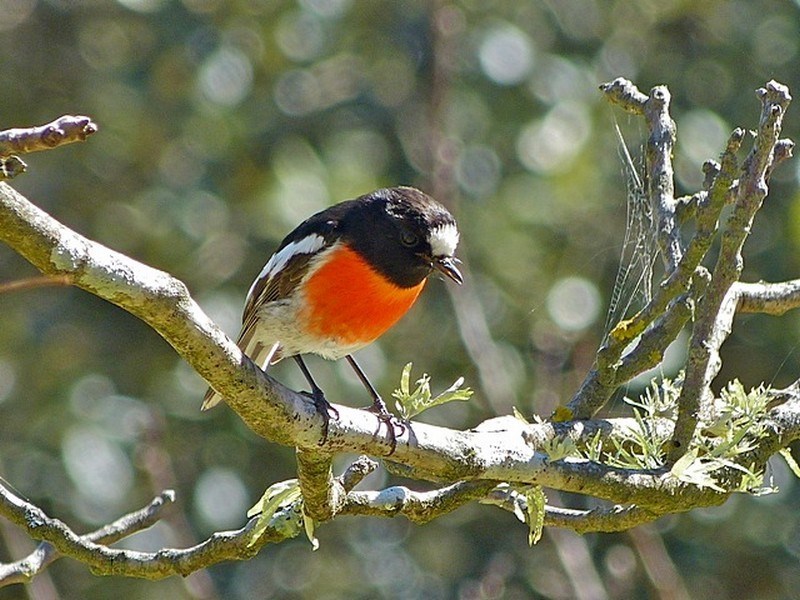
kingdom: Animalia
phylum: Chordata
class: Aves
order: Passeriformes
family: Petroicidae
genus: Petroica
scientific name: Petroica boodang
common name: Scarlet robin
